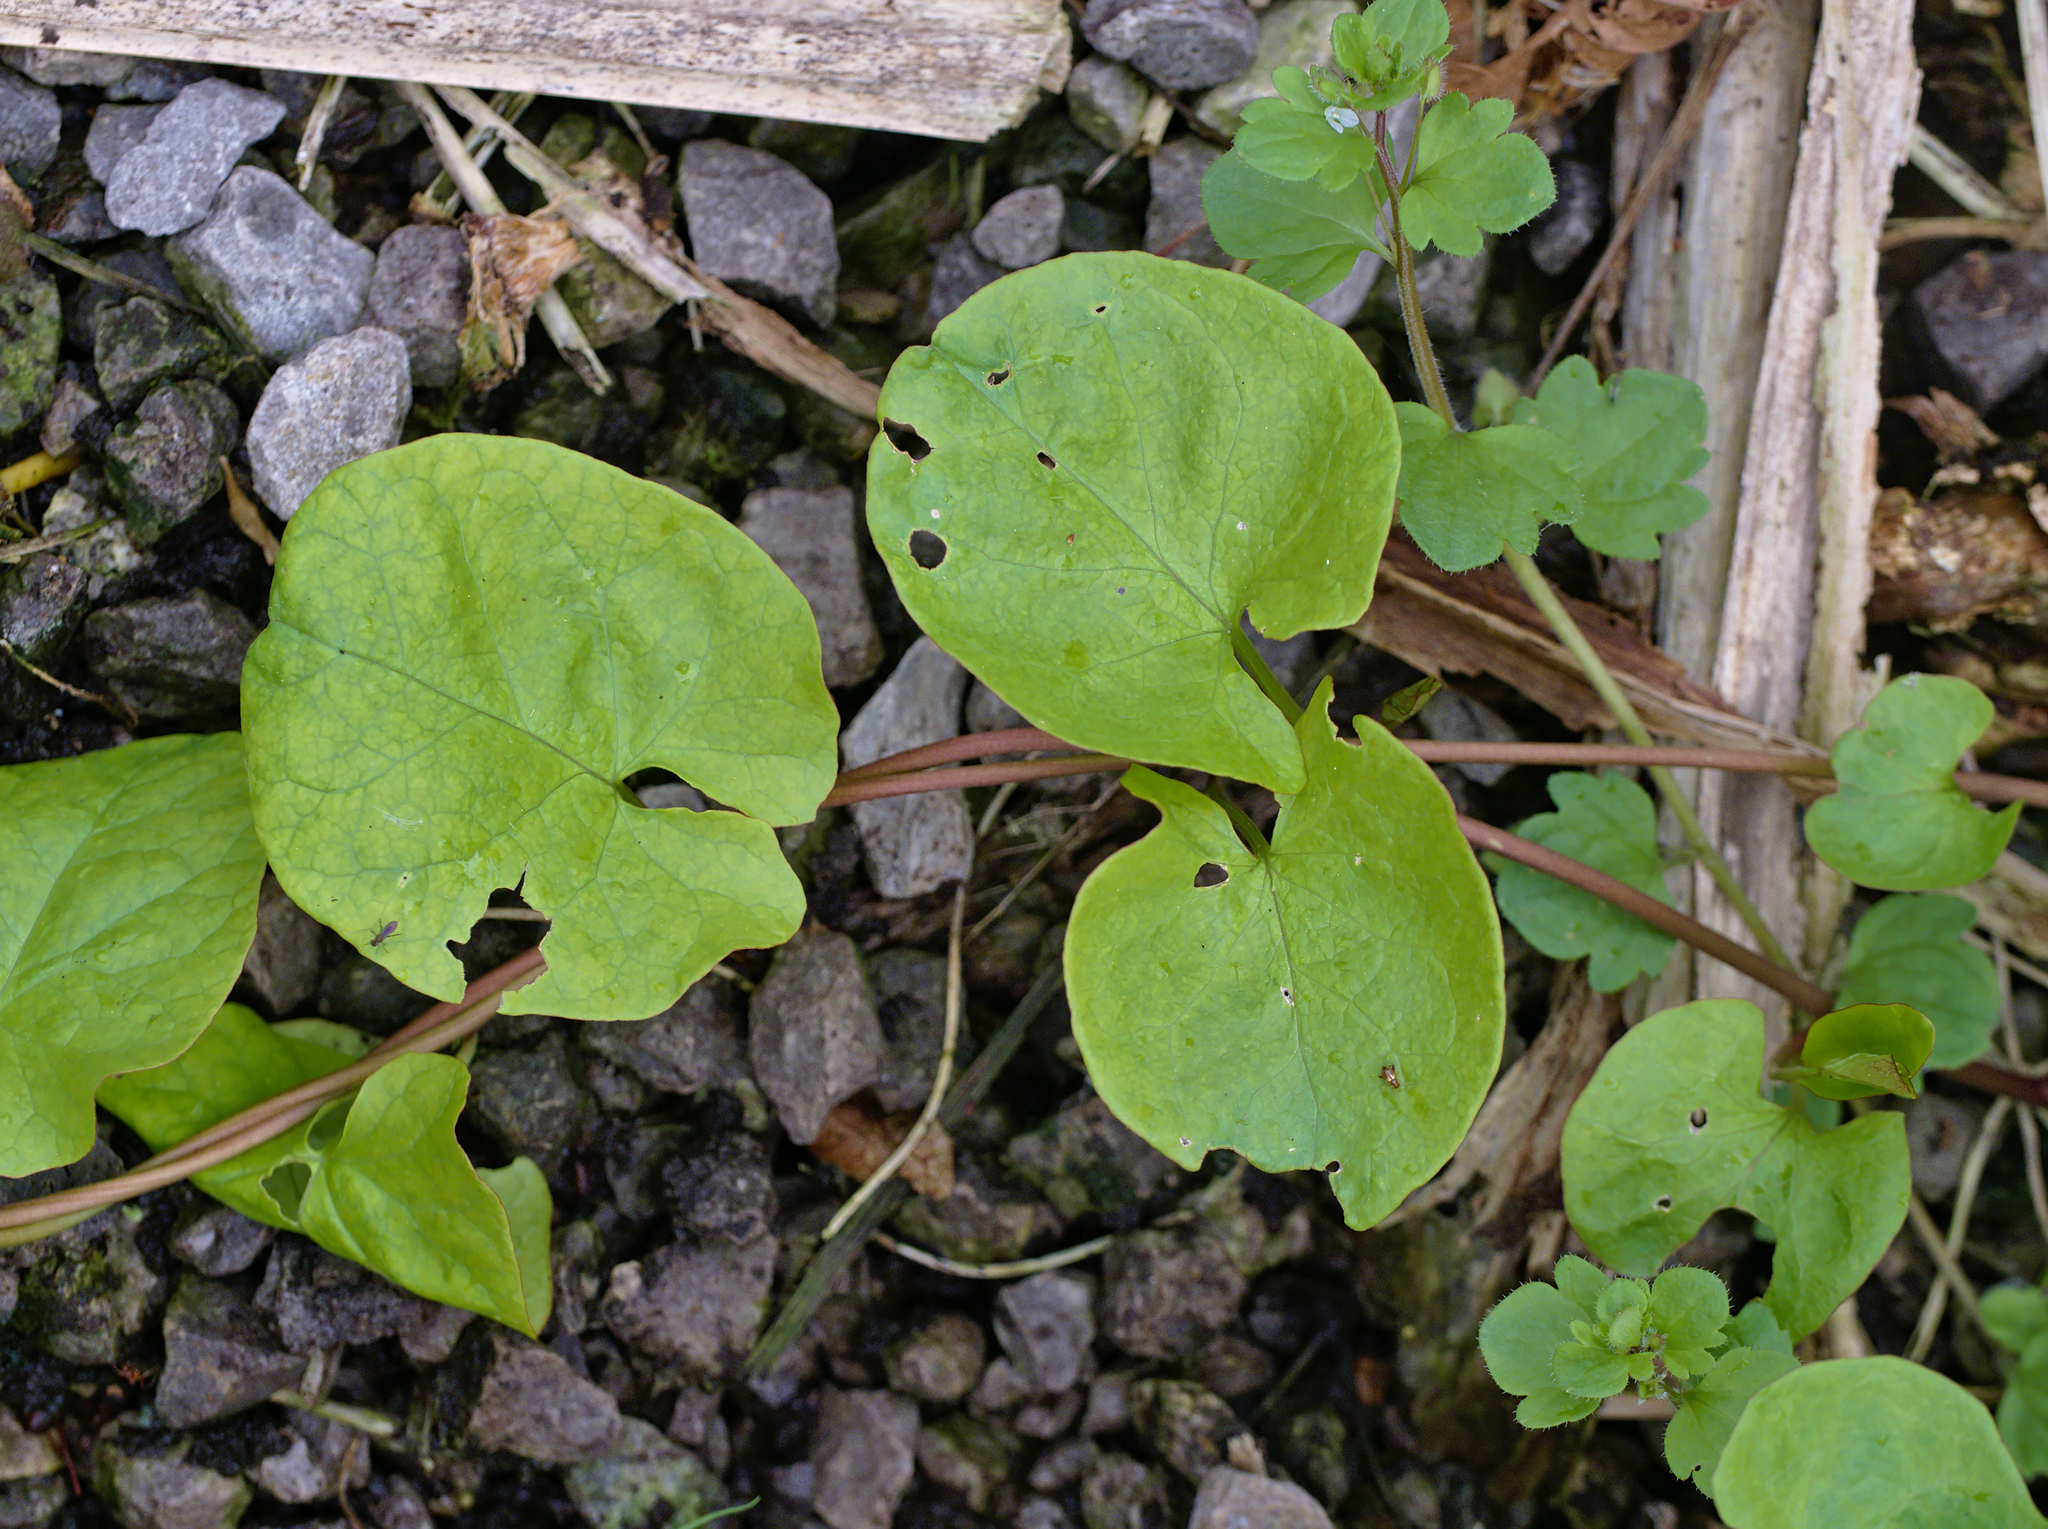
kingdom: Plantae
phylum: Tracheophyta
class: Magnoliopsida
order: Solanales
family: Convolvulaceae
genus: Calystegia
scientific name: Calystegia sepium
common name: Hedge bindweed
